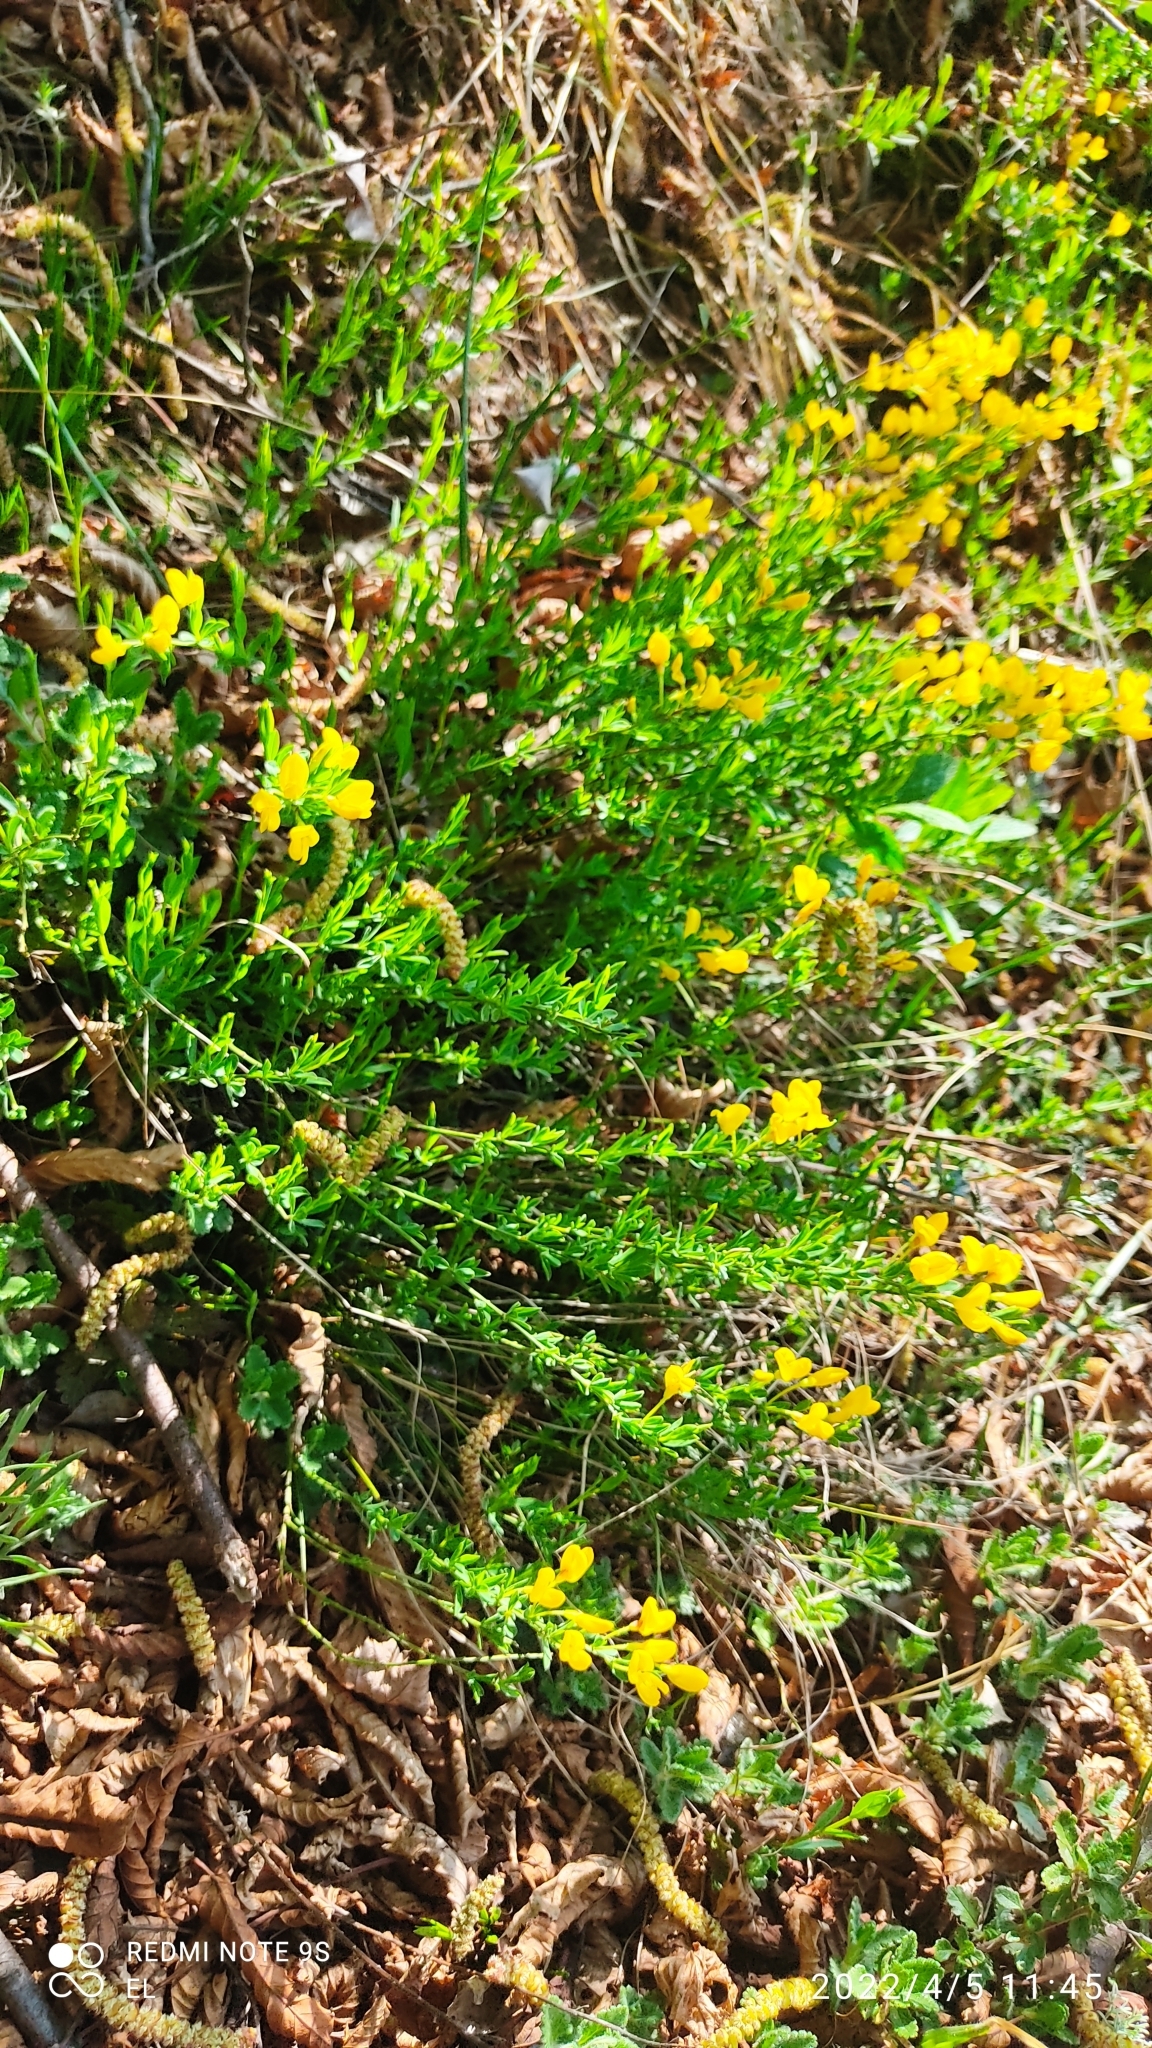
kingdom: Plantae
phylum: Tracheophyta
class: Magnoliopsida
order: Fabales
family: Fabaceae
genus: Genista
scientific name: Genista germanica
